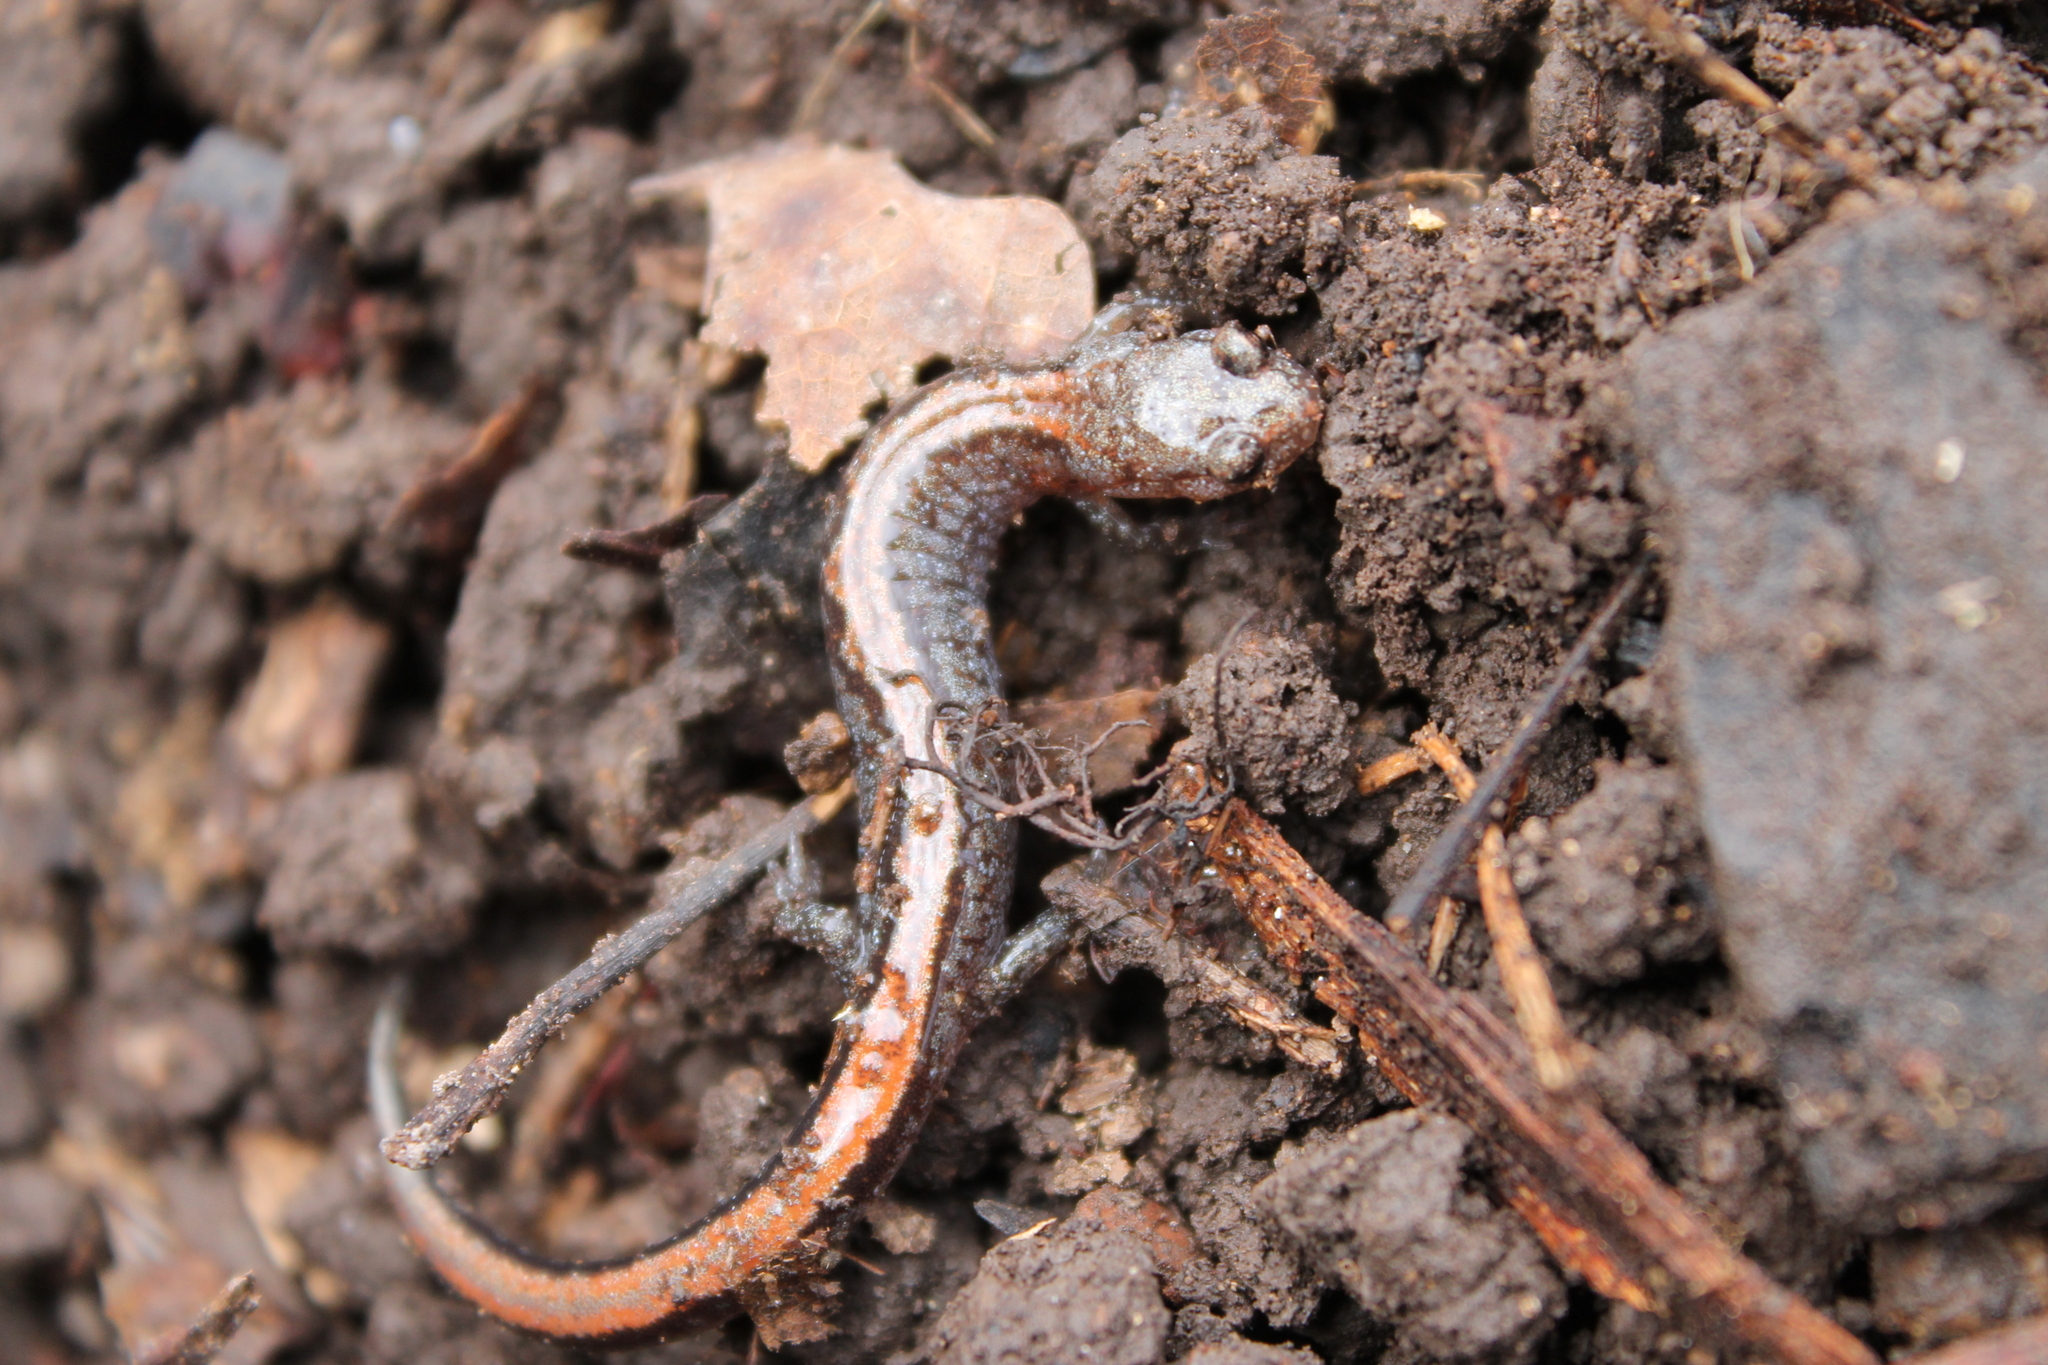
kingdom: Animalia
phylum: Chordata
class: Amphibia
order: Caudata
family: Plethodontidae
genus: Plethodon
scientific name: Plethodon dorsalis
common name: Northern zigzag salamander
